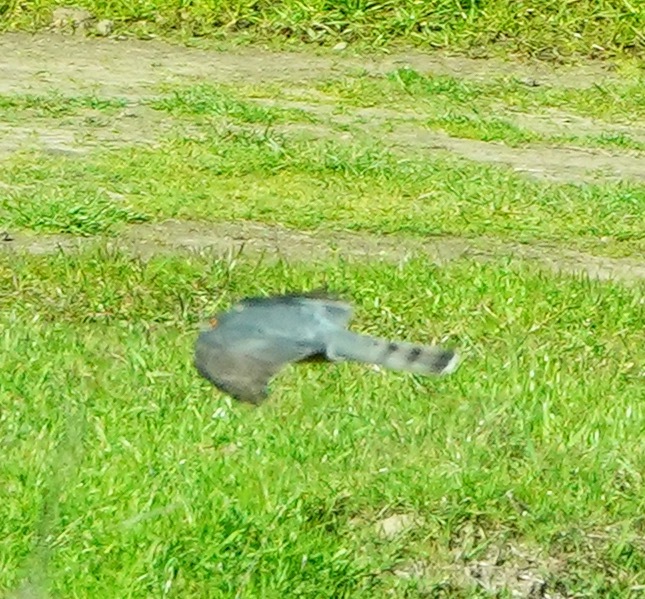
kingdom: Animalia
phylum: Chordata
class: Aves
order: Accipitriformes
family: Accipitridae
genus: Accipiter
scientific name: Accipiter striatus
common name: Sharp-shinned hawk
